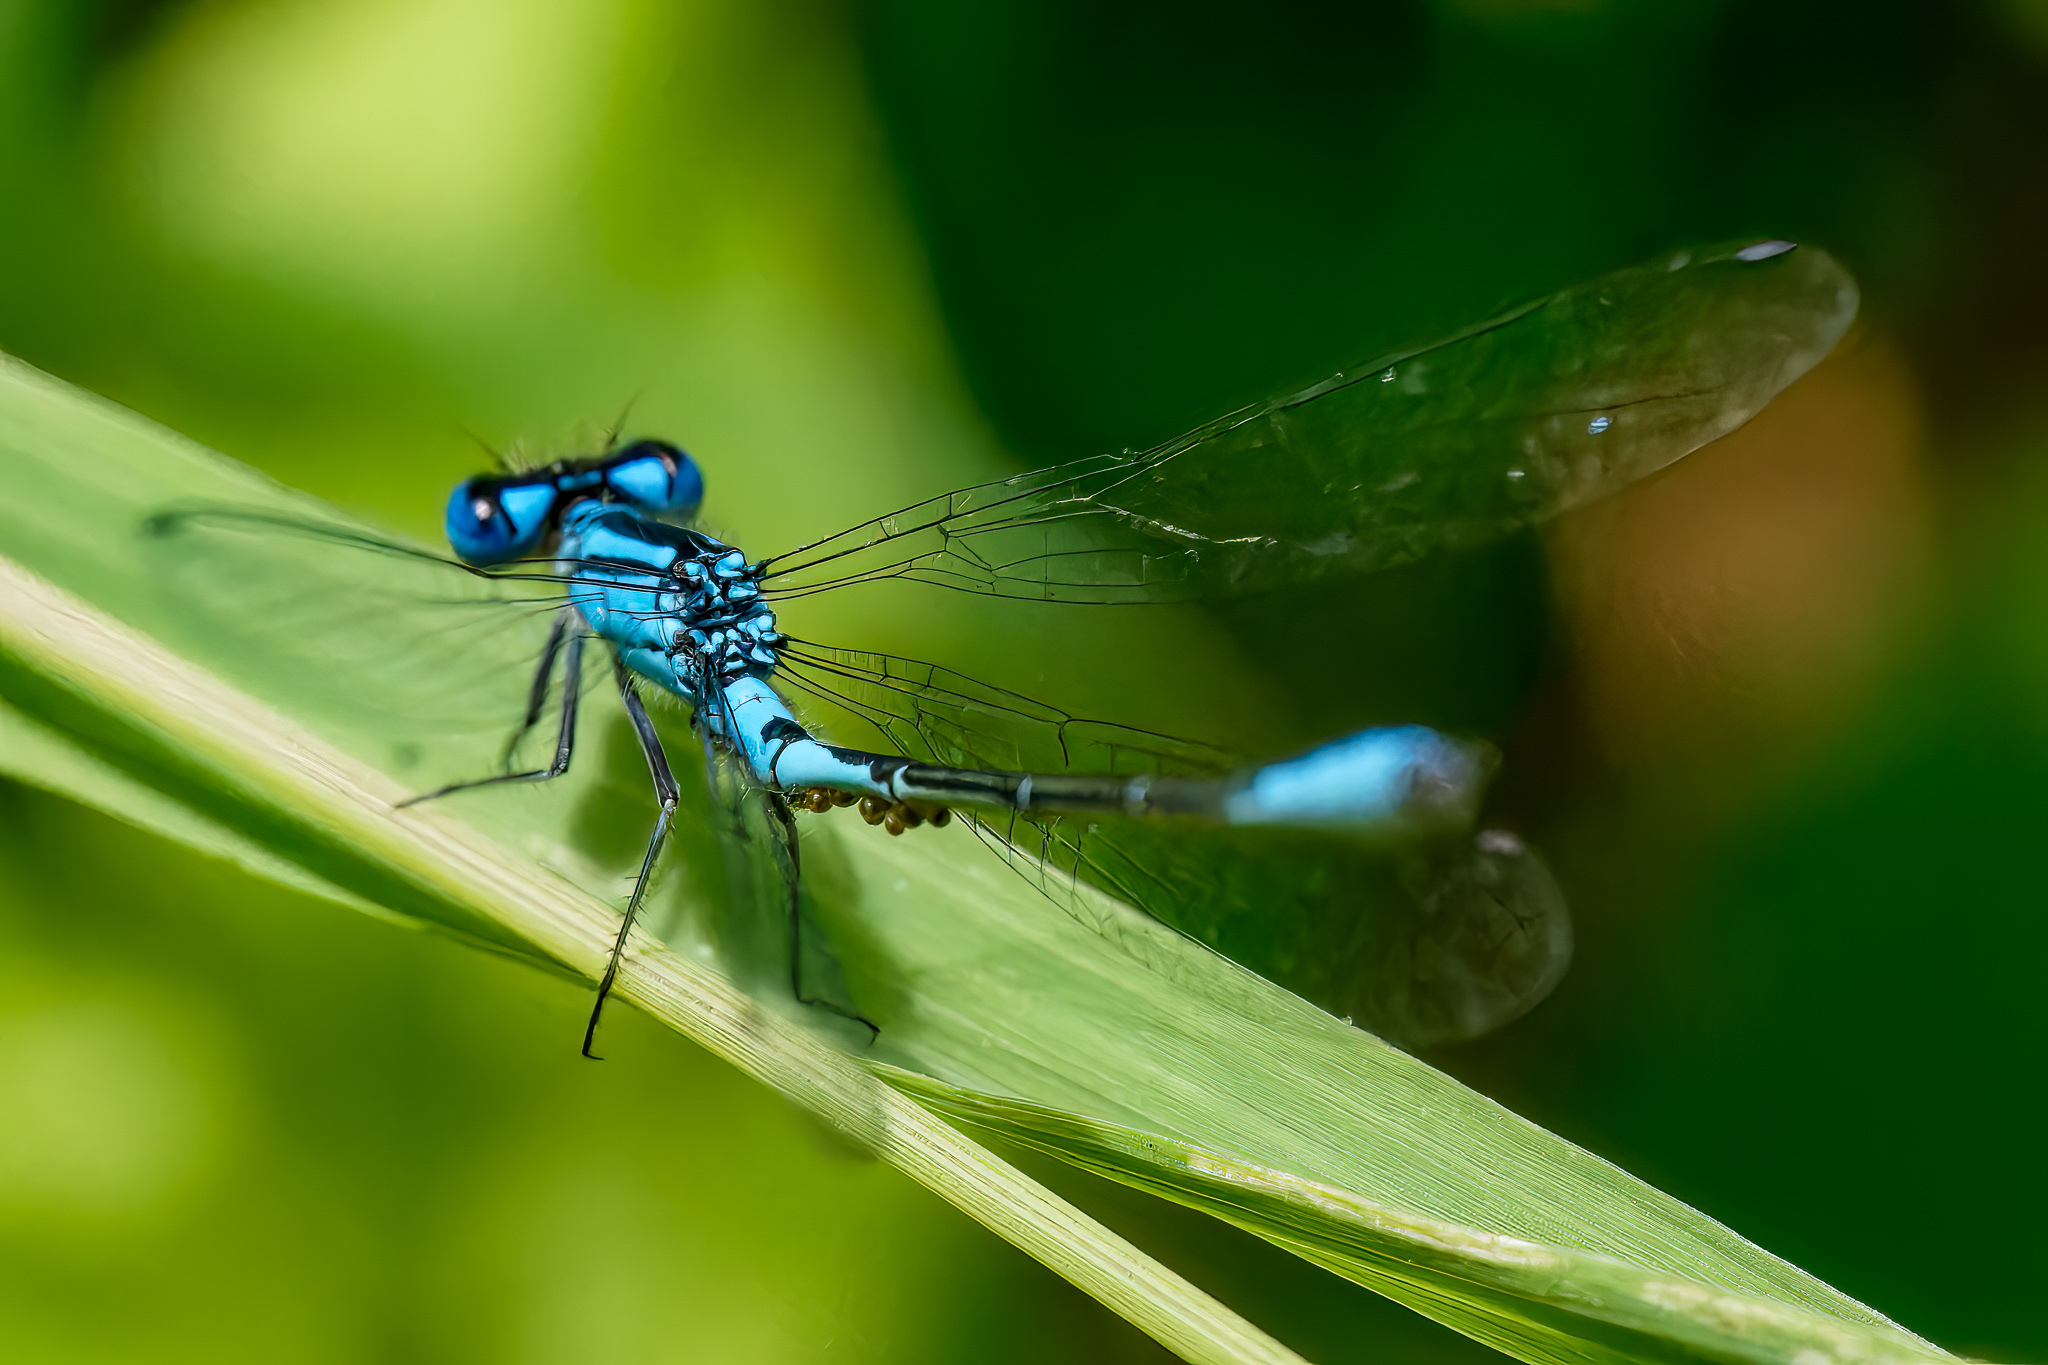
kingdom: Animalia
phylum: Arthropoda
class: Insecta
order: Odonata
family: Coenagrionidae
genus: Enallagma
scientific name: Enallagma aspersum
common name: Azure bluet
